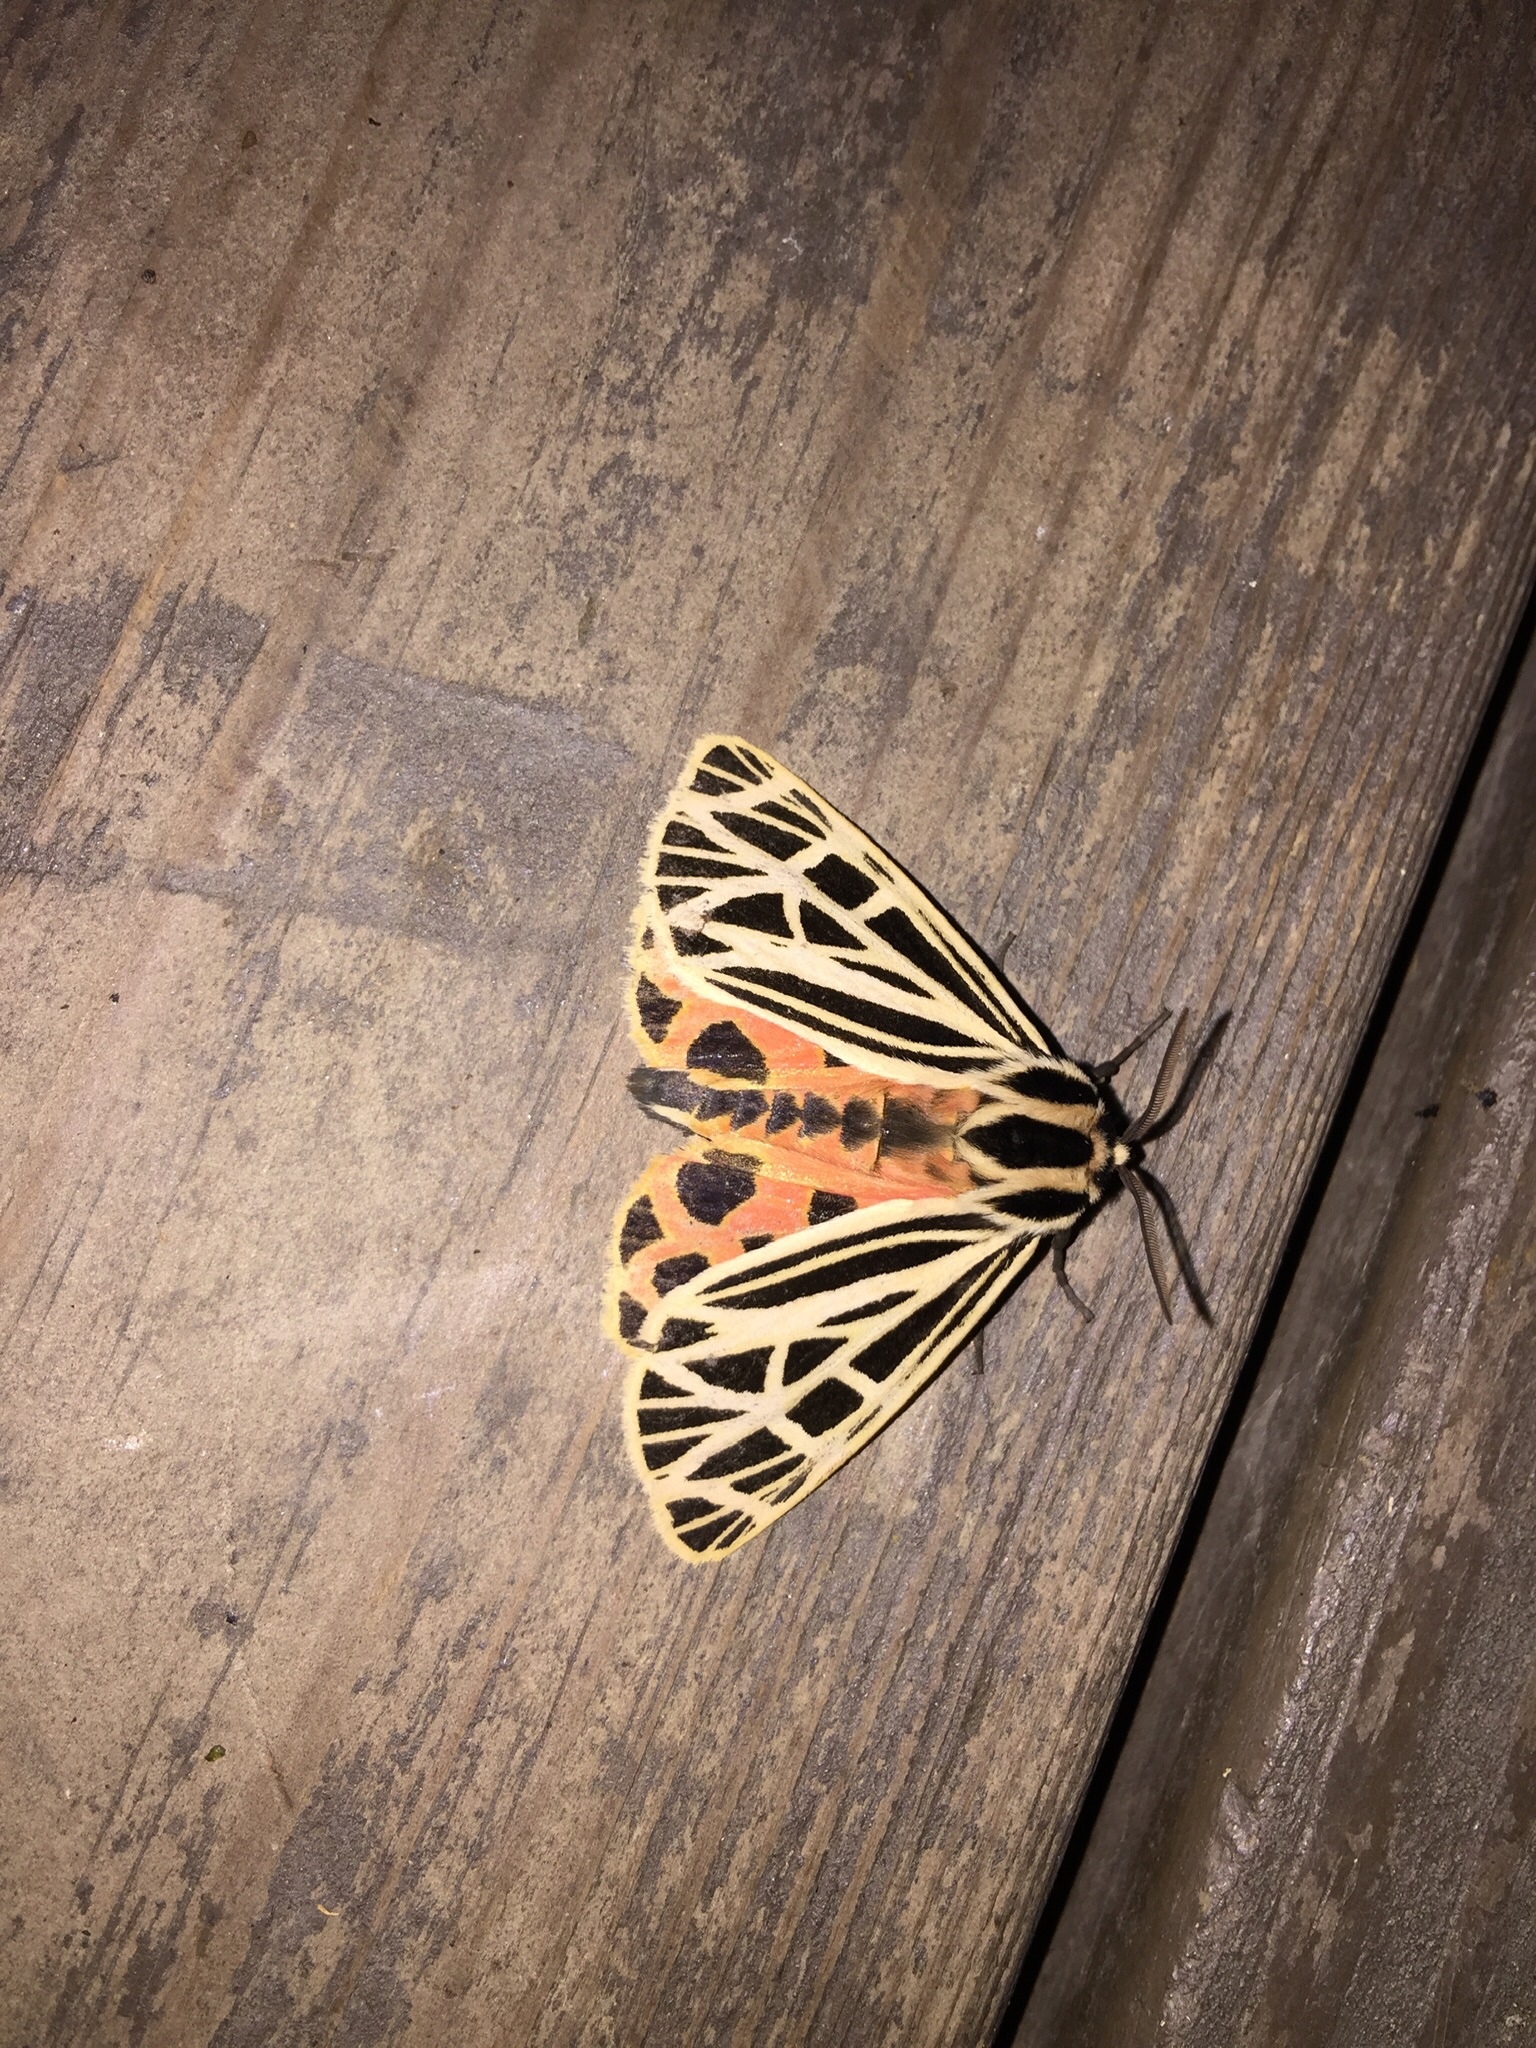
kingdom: Animalia
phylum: Arthropoda
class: Insecta
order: Lepidoptera
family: Erebidae
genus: Grammia
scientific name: Grammia virgo
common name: Virgin tiger moth
